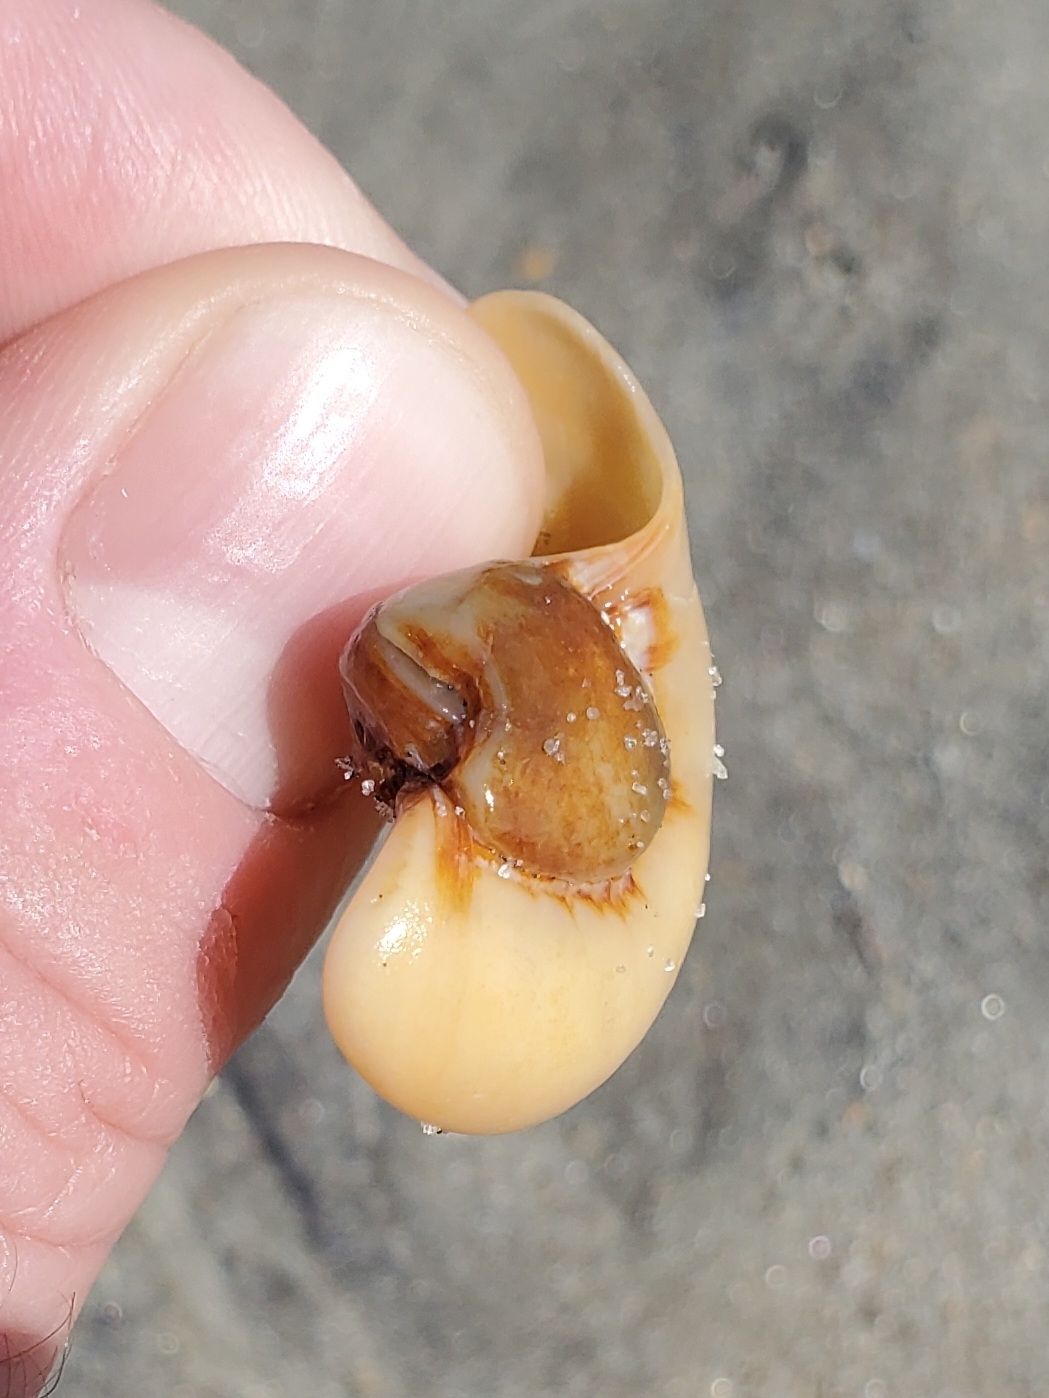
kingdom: Animalia
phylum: Mollusca
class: Gastropoda
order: Littorinimorpha
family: Naticidae
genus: Neverita
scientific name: Neverita duplicata
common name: Lobed moonsnail
